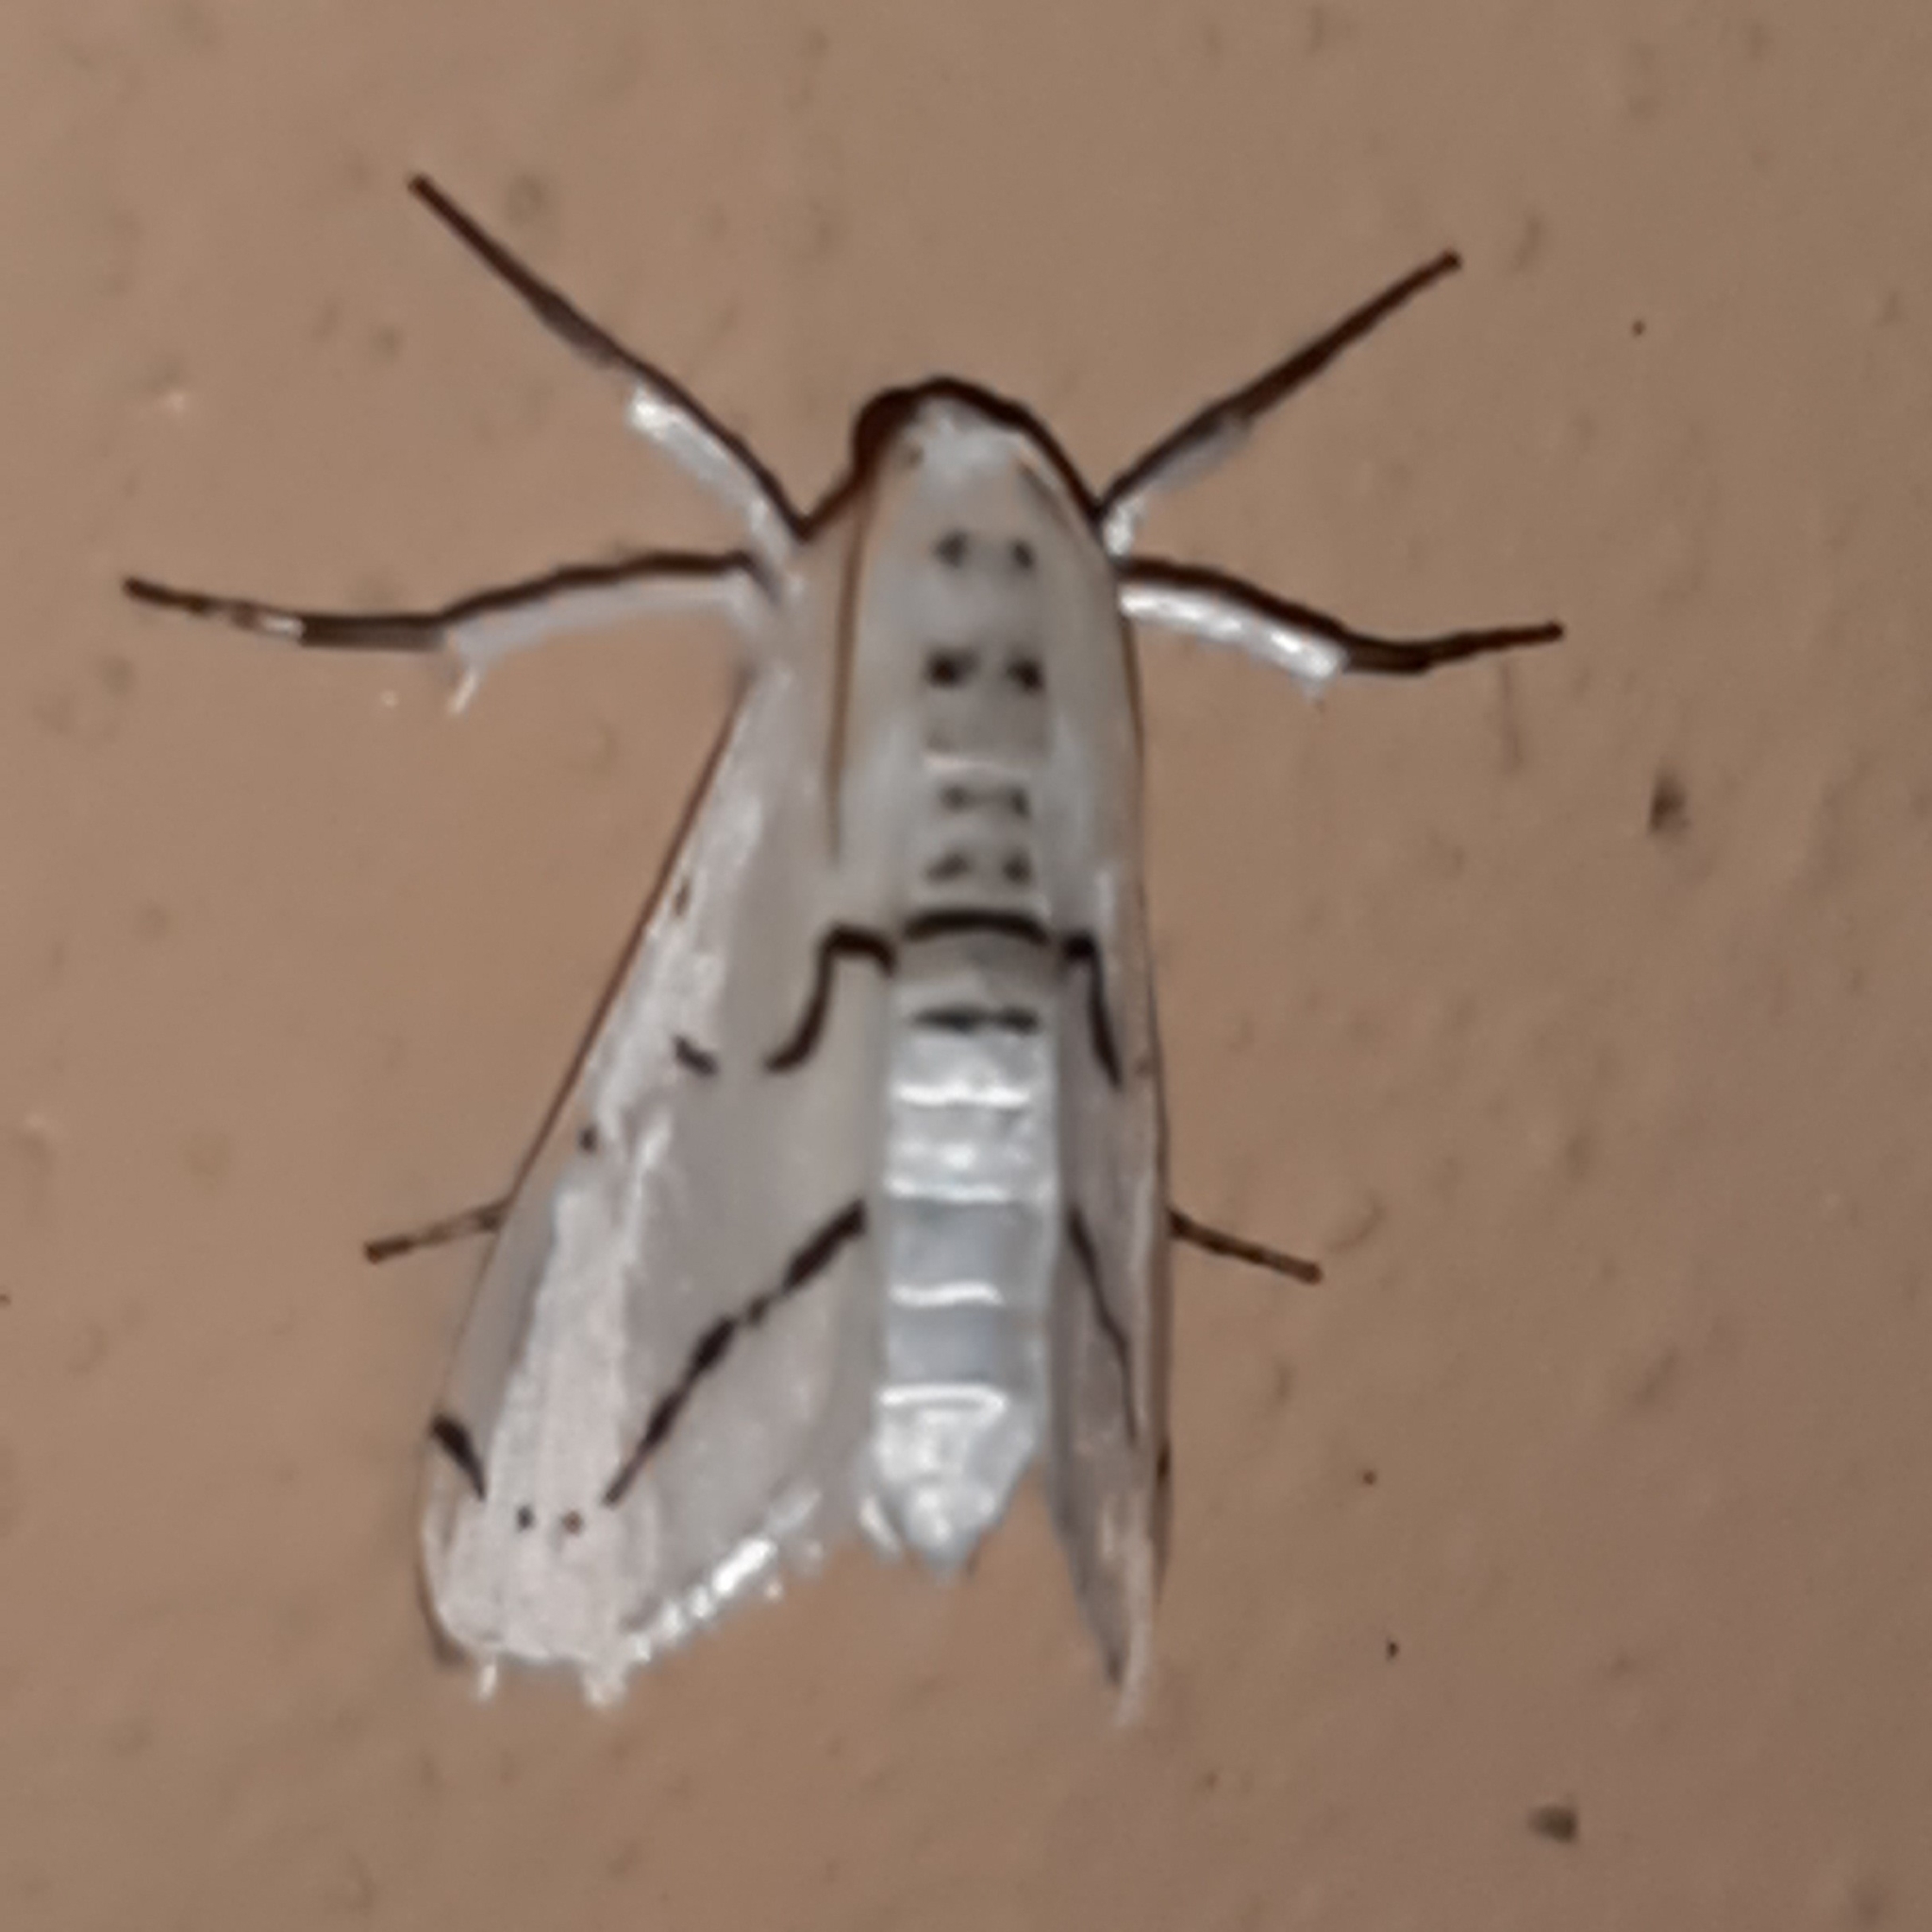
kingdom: Animalia
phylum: Arthropoda
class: Insecta
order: Lepidoptera
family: Crambidae
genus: Linosta
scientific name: Linosta
